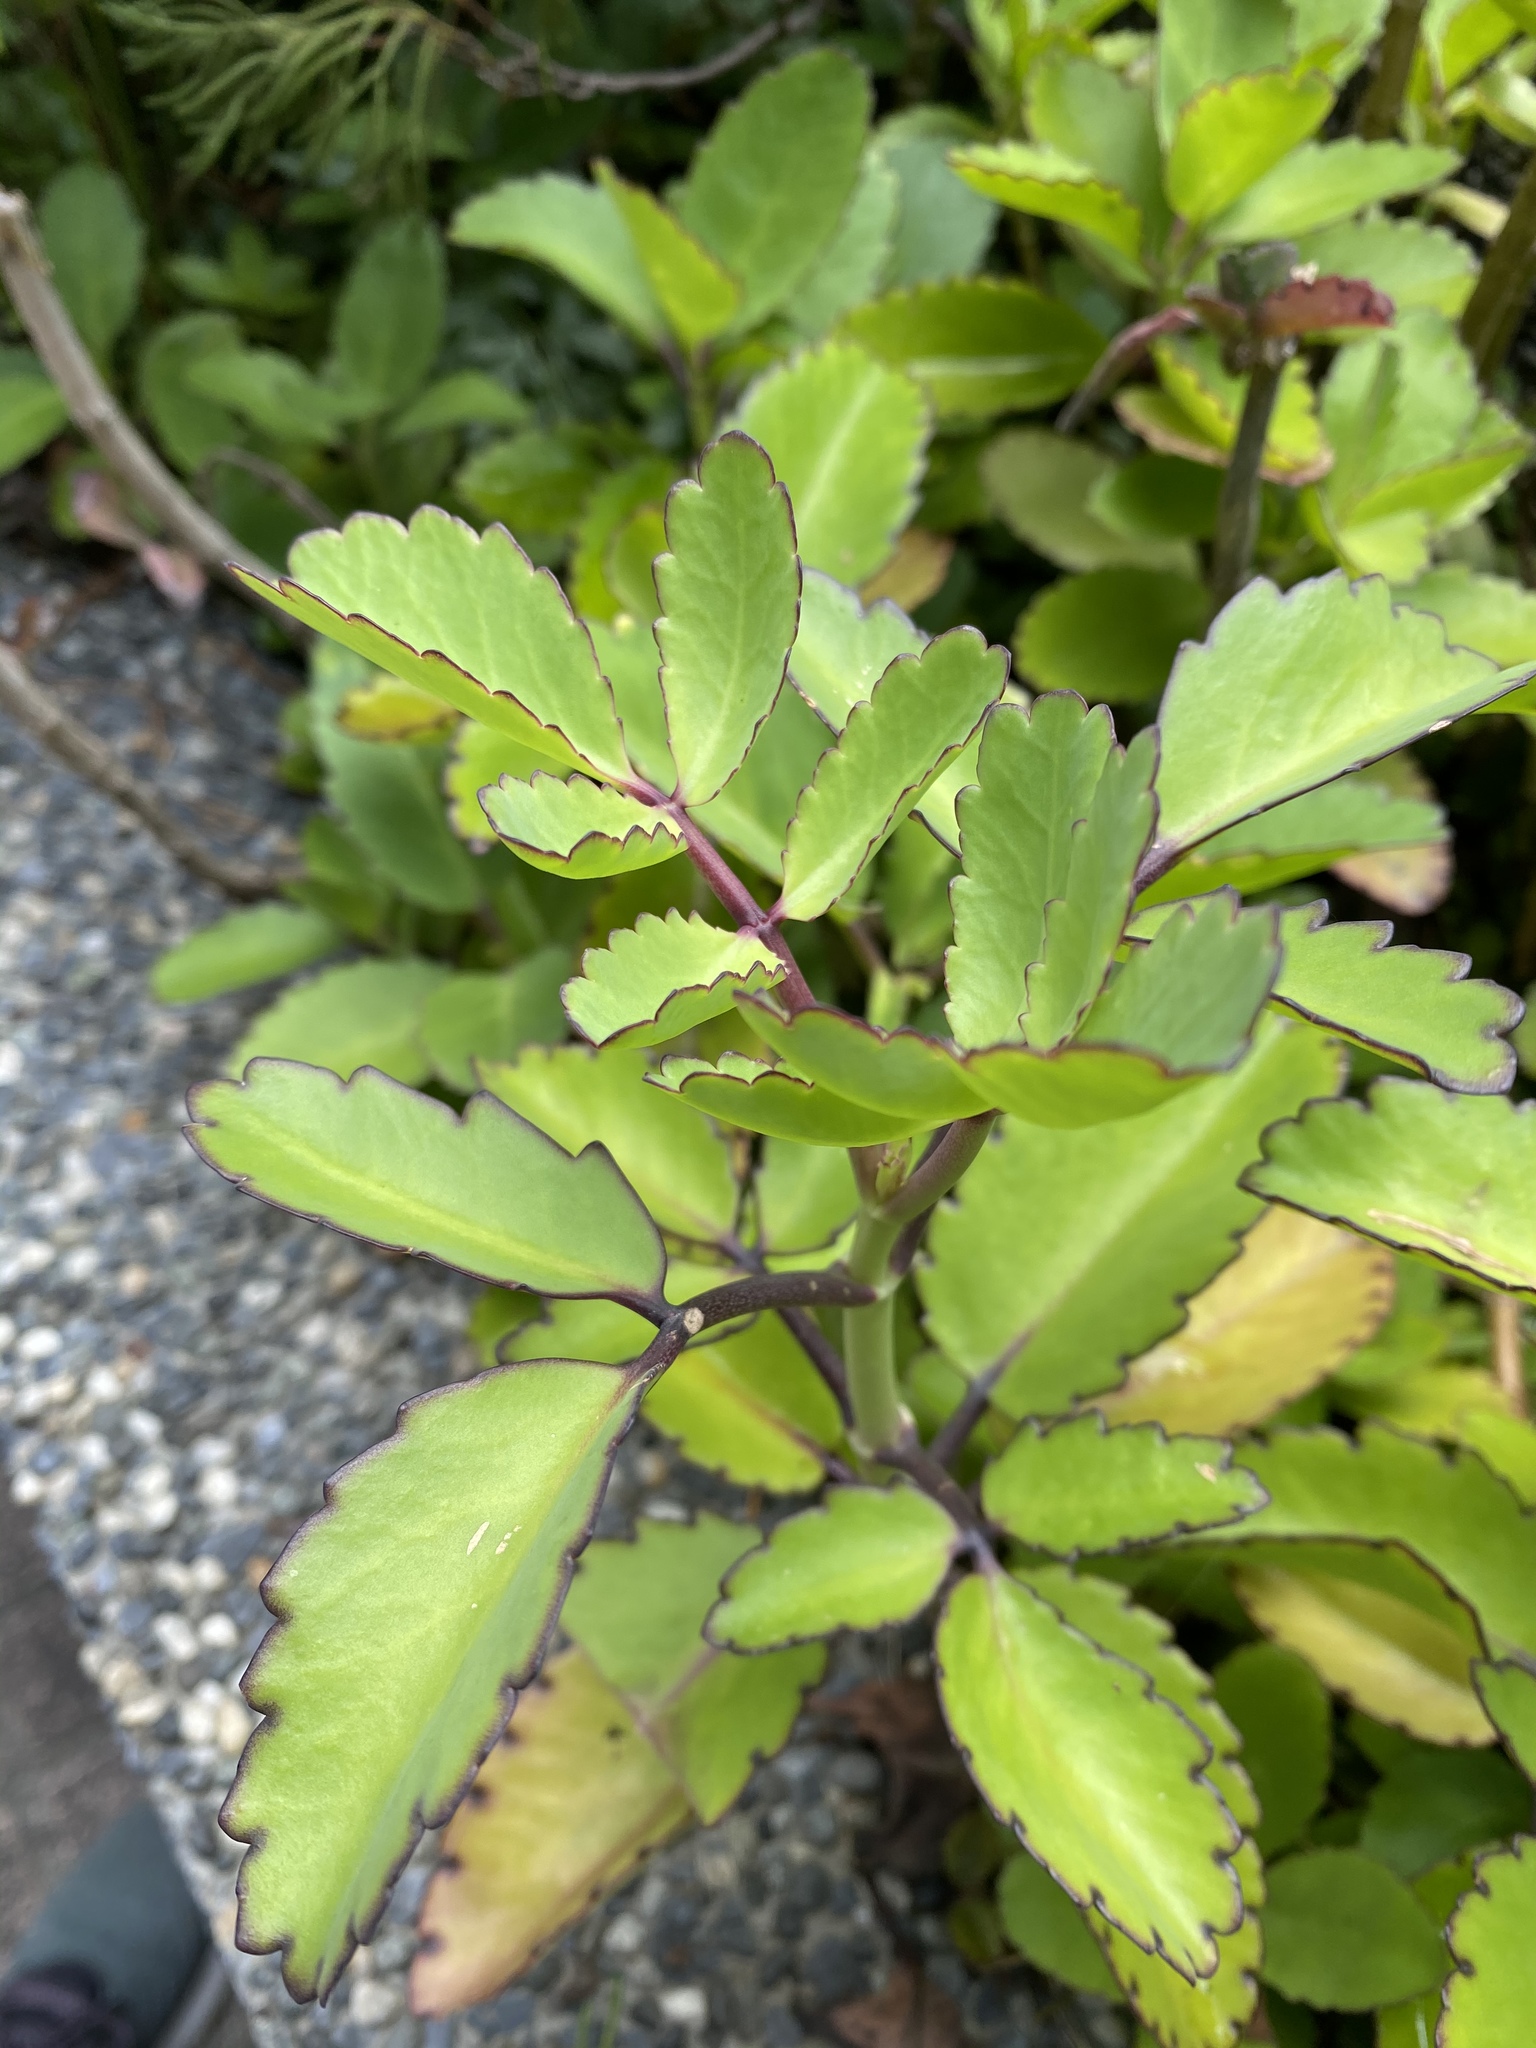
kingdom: Plantae
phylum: Tracheophyta
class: Magnoliopsida
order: Saxifragales
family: Crassulaceae
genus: Kalanchoe
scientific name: Kalanchoe pinnata
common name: Cathedral bells
